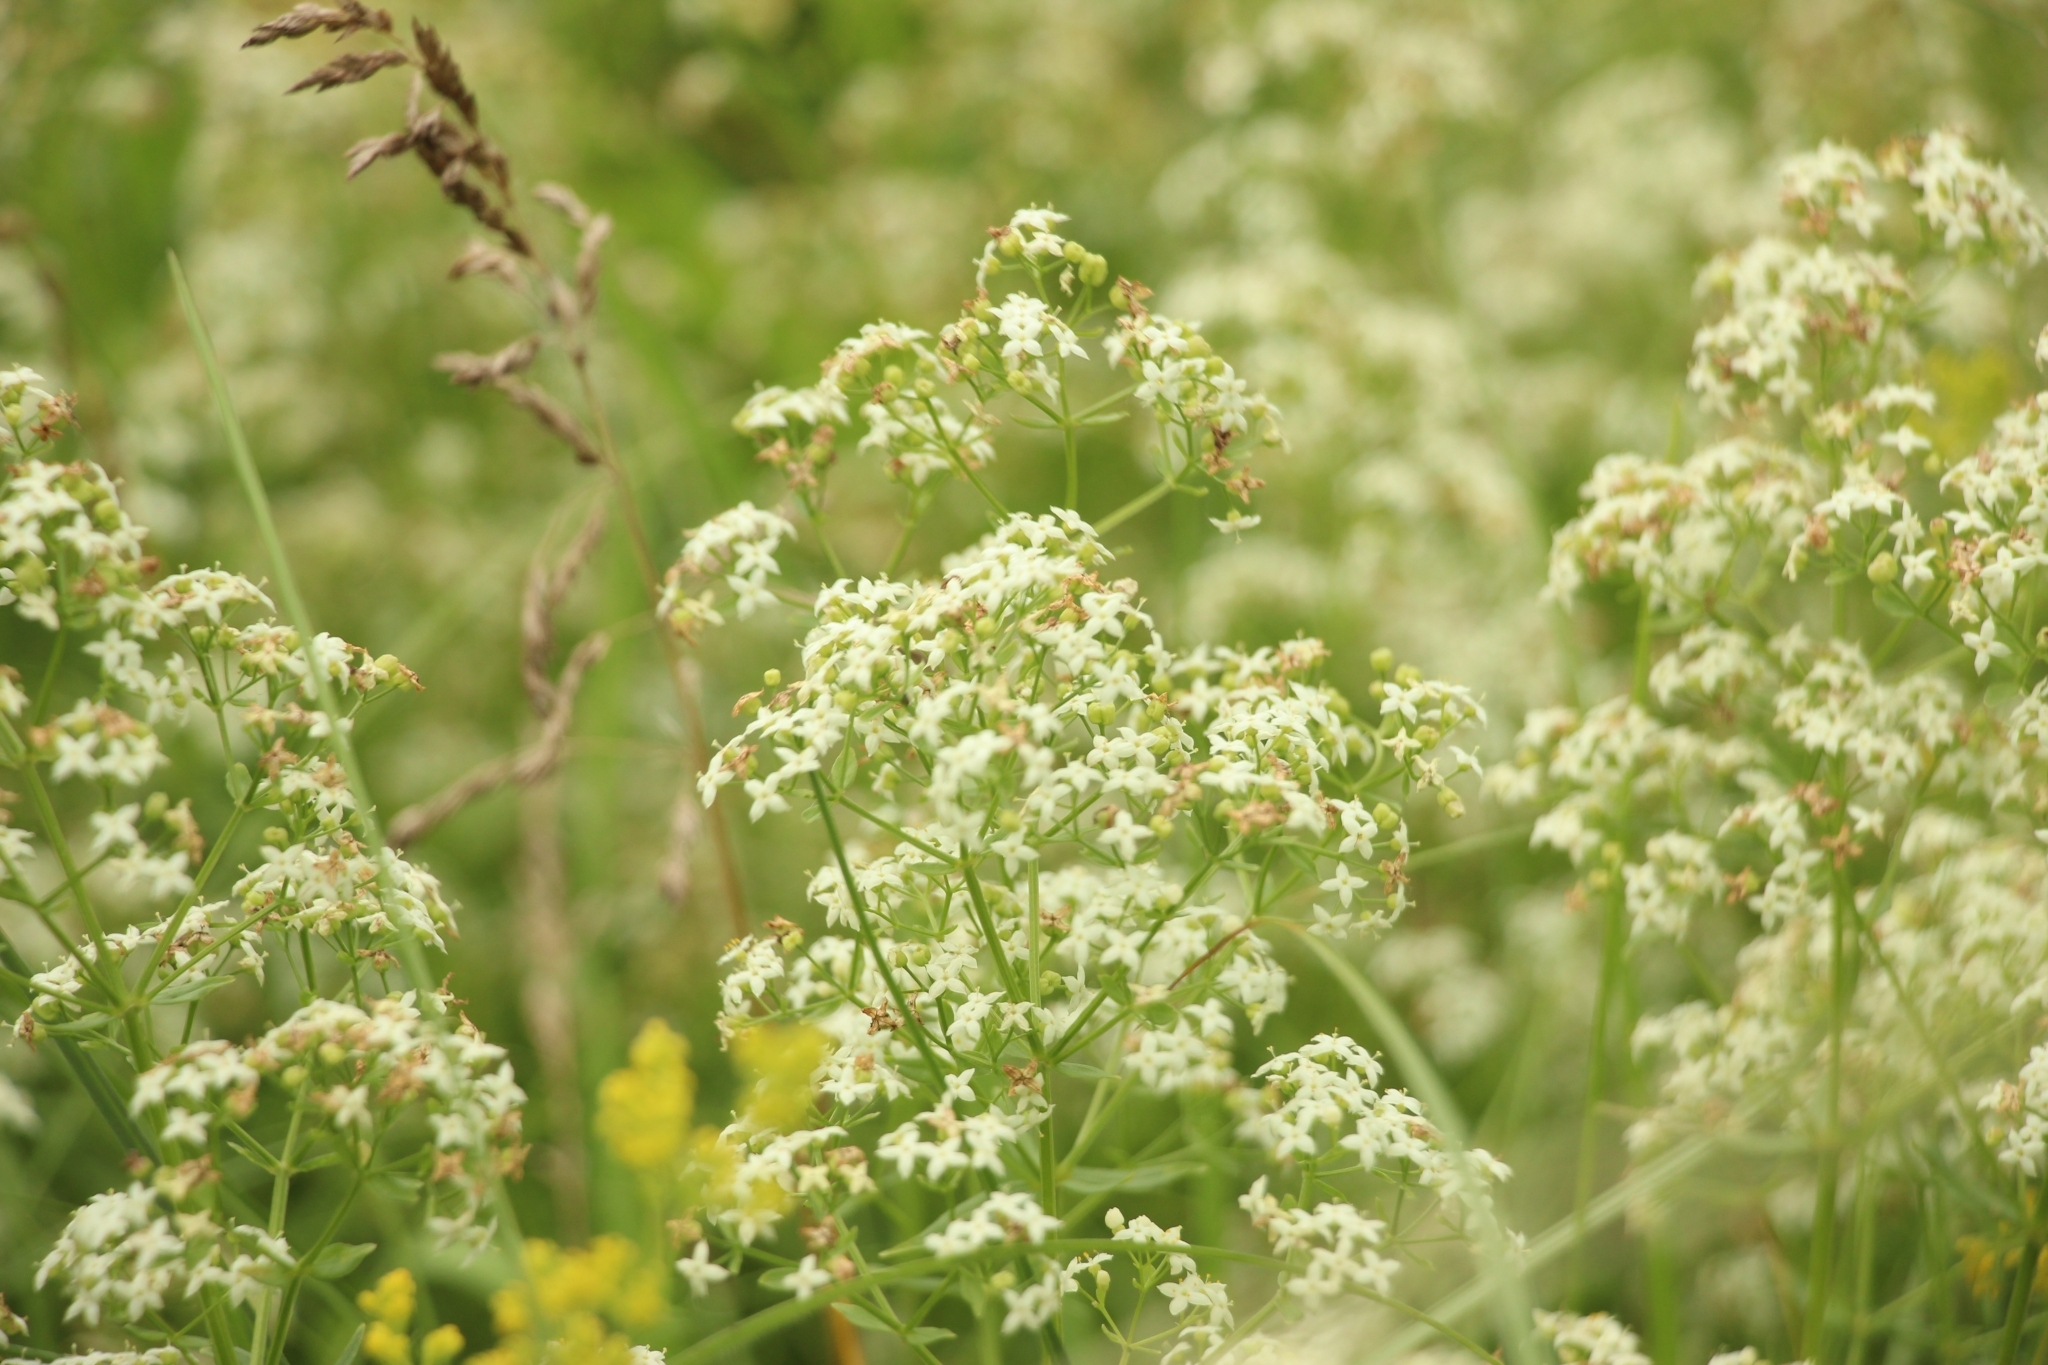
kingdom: Plantae
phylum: Tracheophyta
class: Magnoliopsida
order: Gentianales
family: Rubiaceae
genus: Galium
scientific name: Galium boreale
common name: Northern bedstraw
